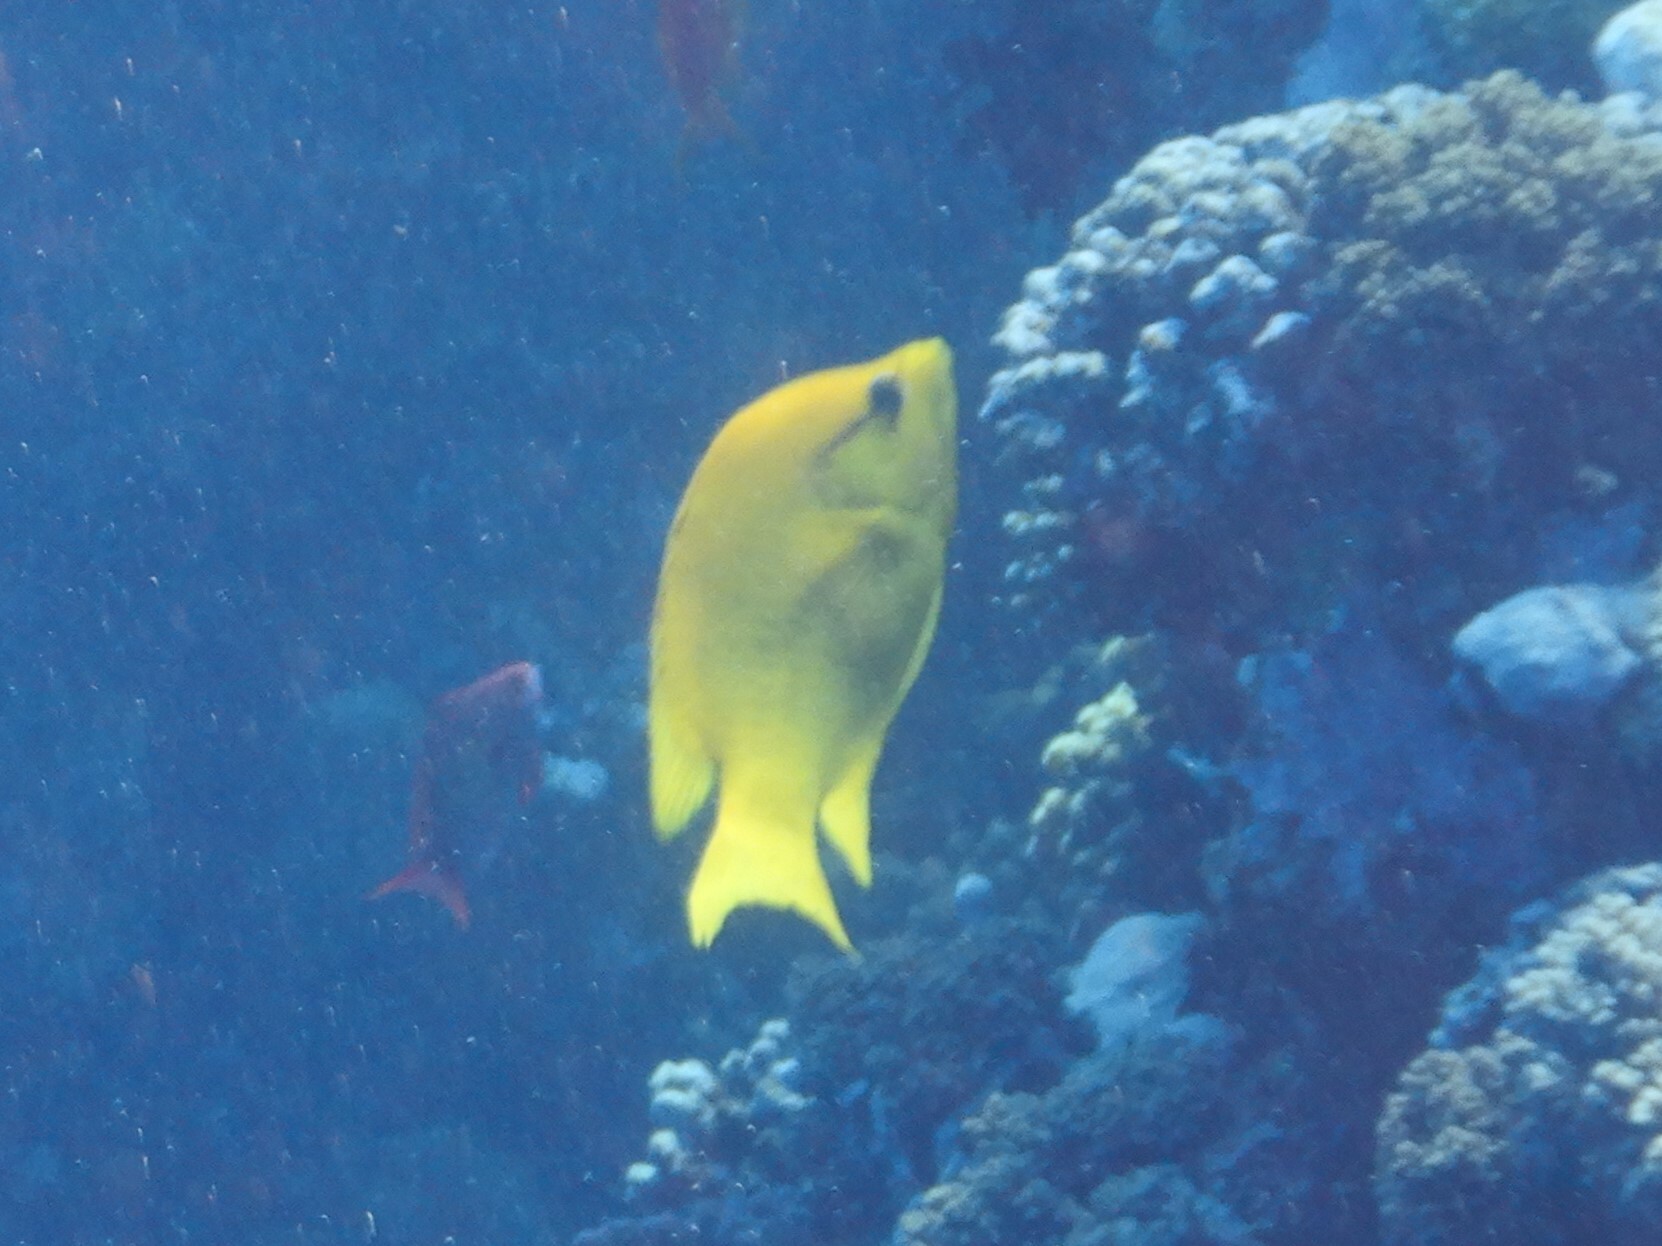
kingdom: Animalia
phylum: Chordata
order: Perciformes
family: Labridae
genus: Epibulus
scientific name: Epibulus insidiator
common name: Slingjaw wrasse
